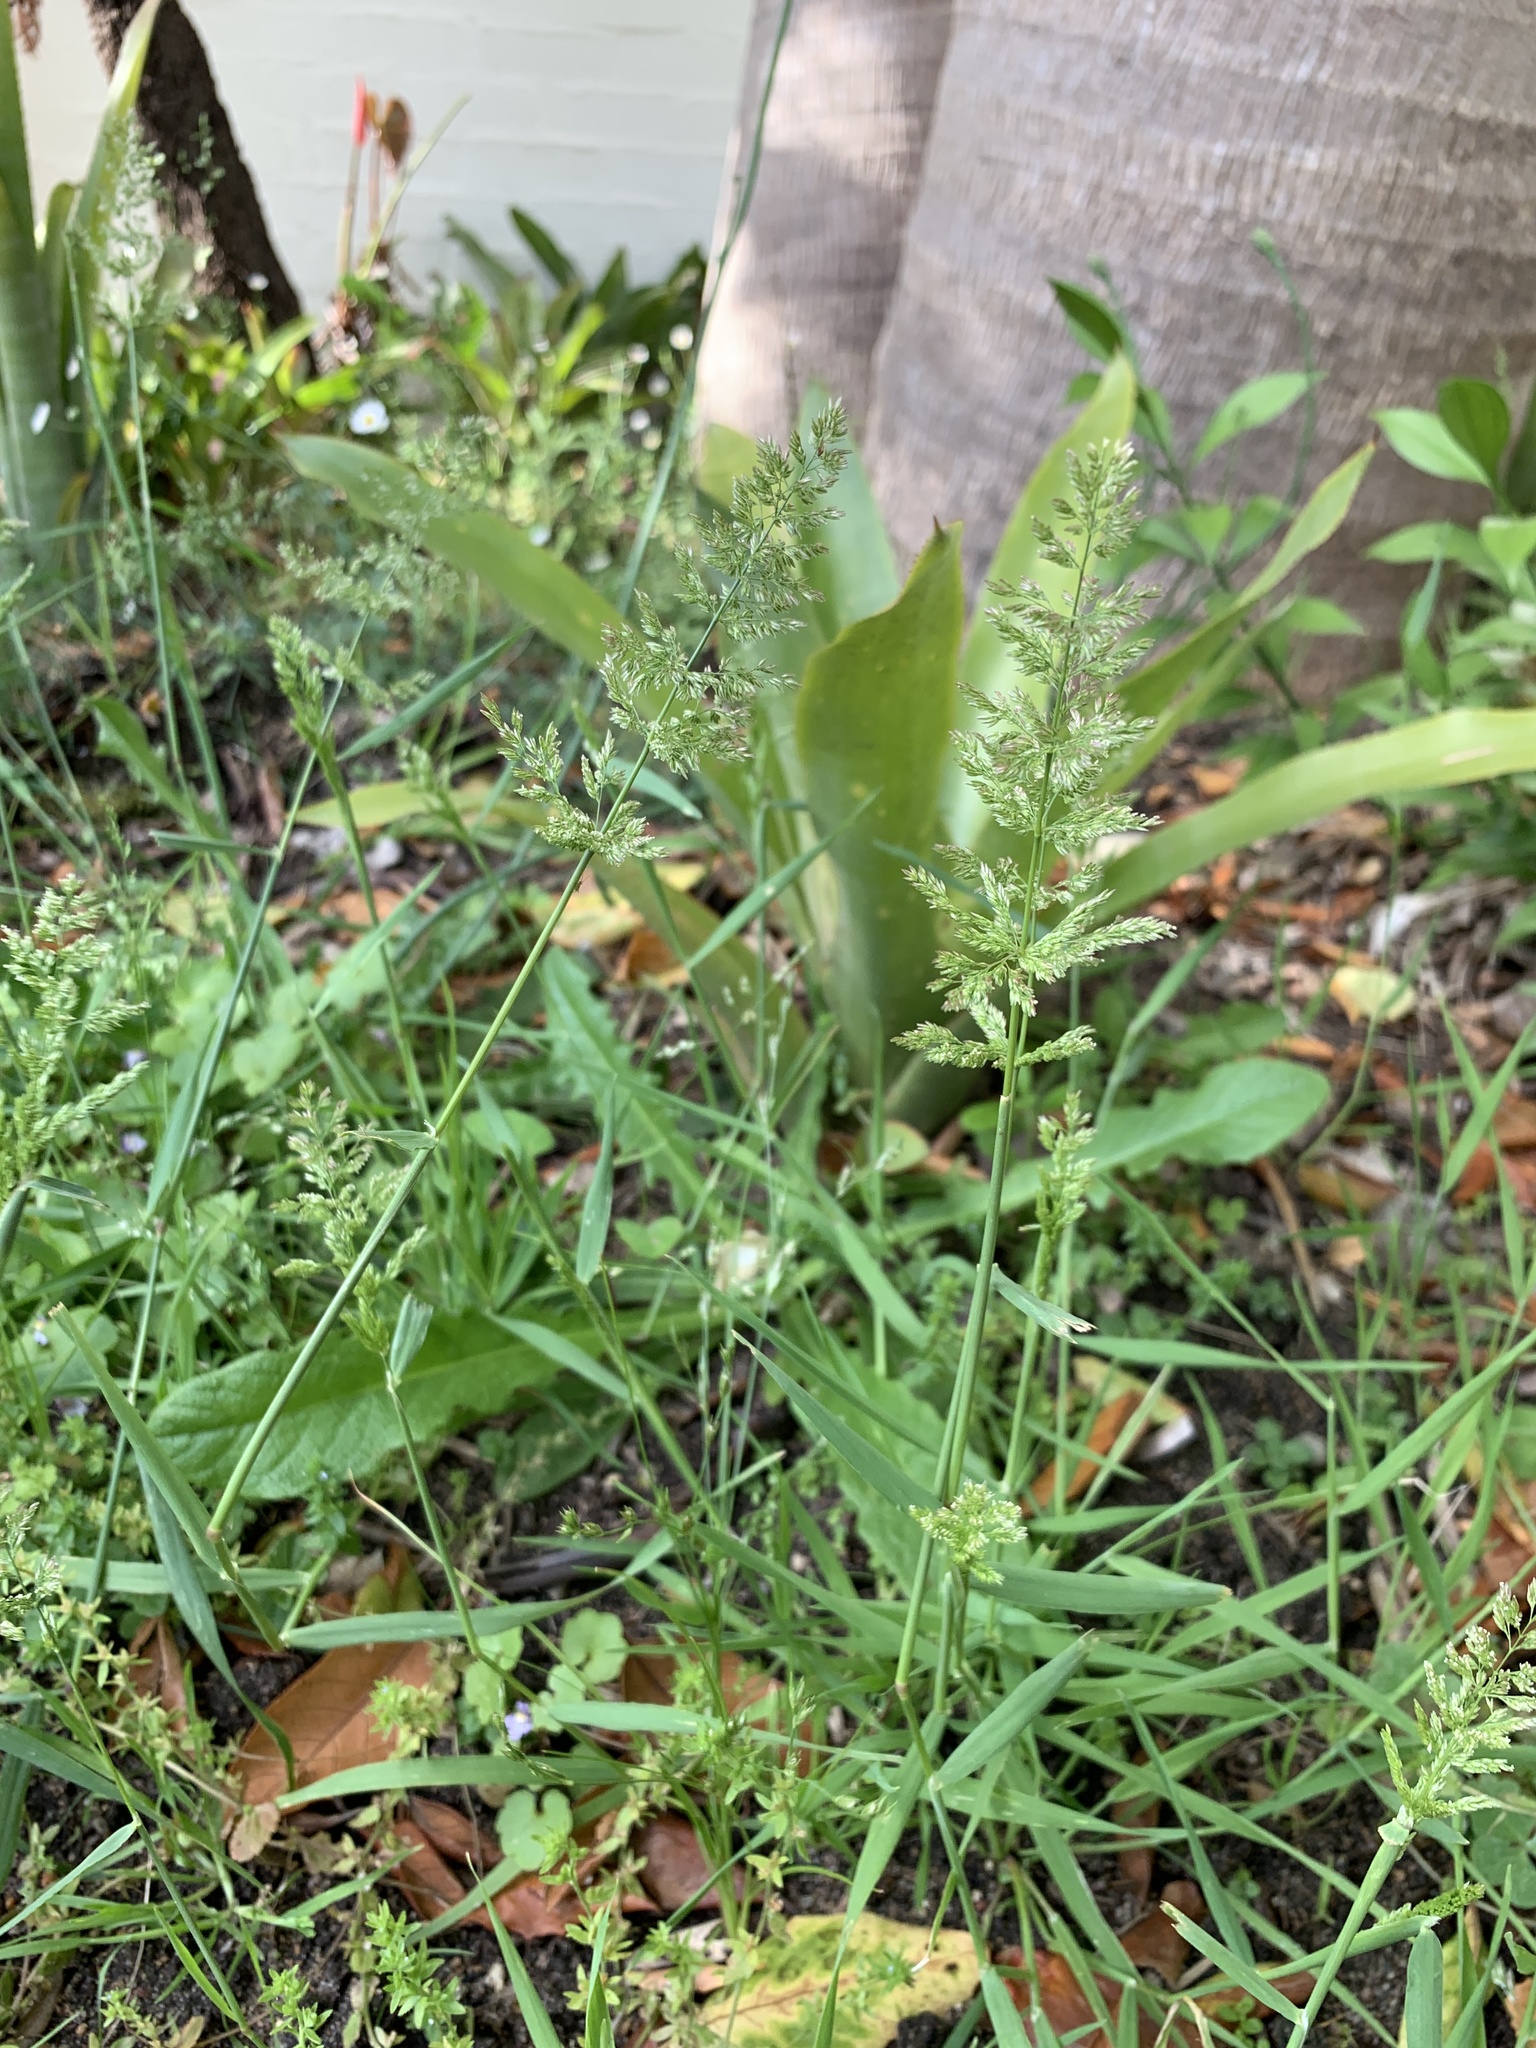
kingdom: Plantae
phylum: Tracheophyta
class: Liliopsida
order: Poales
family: Poaceae
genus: Polypogon
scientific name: Polypogon viridis
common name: Water bent
